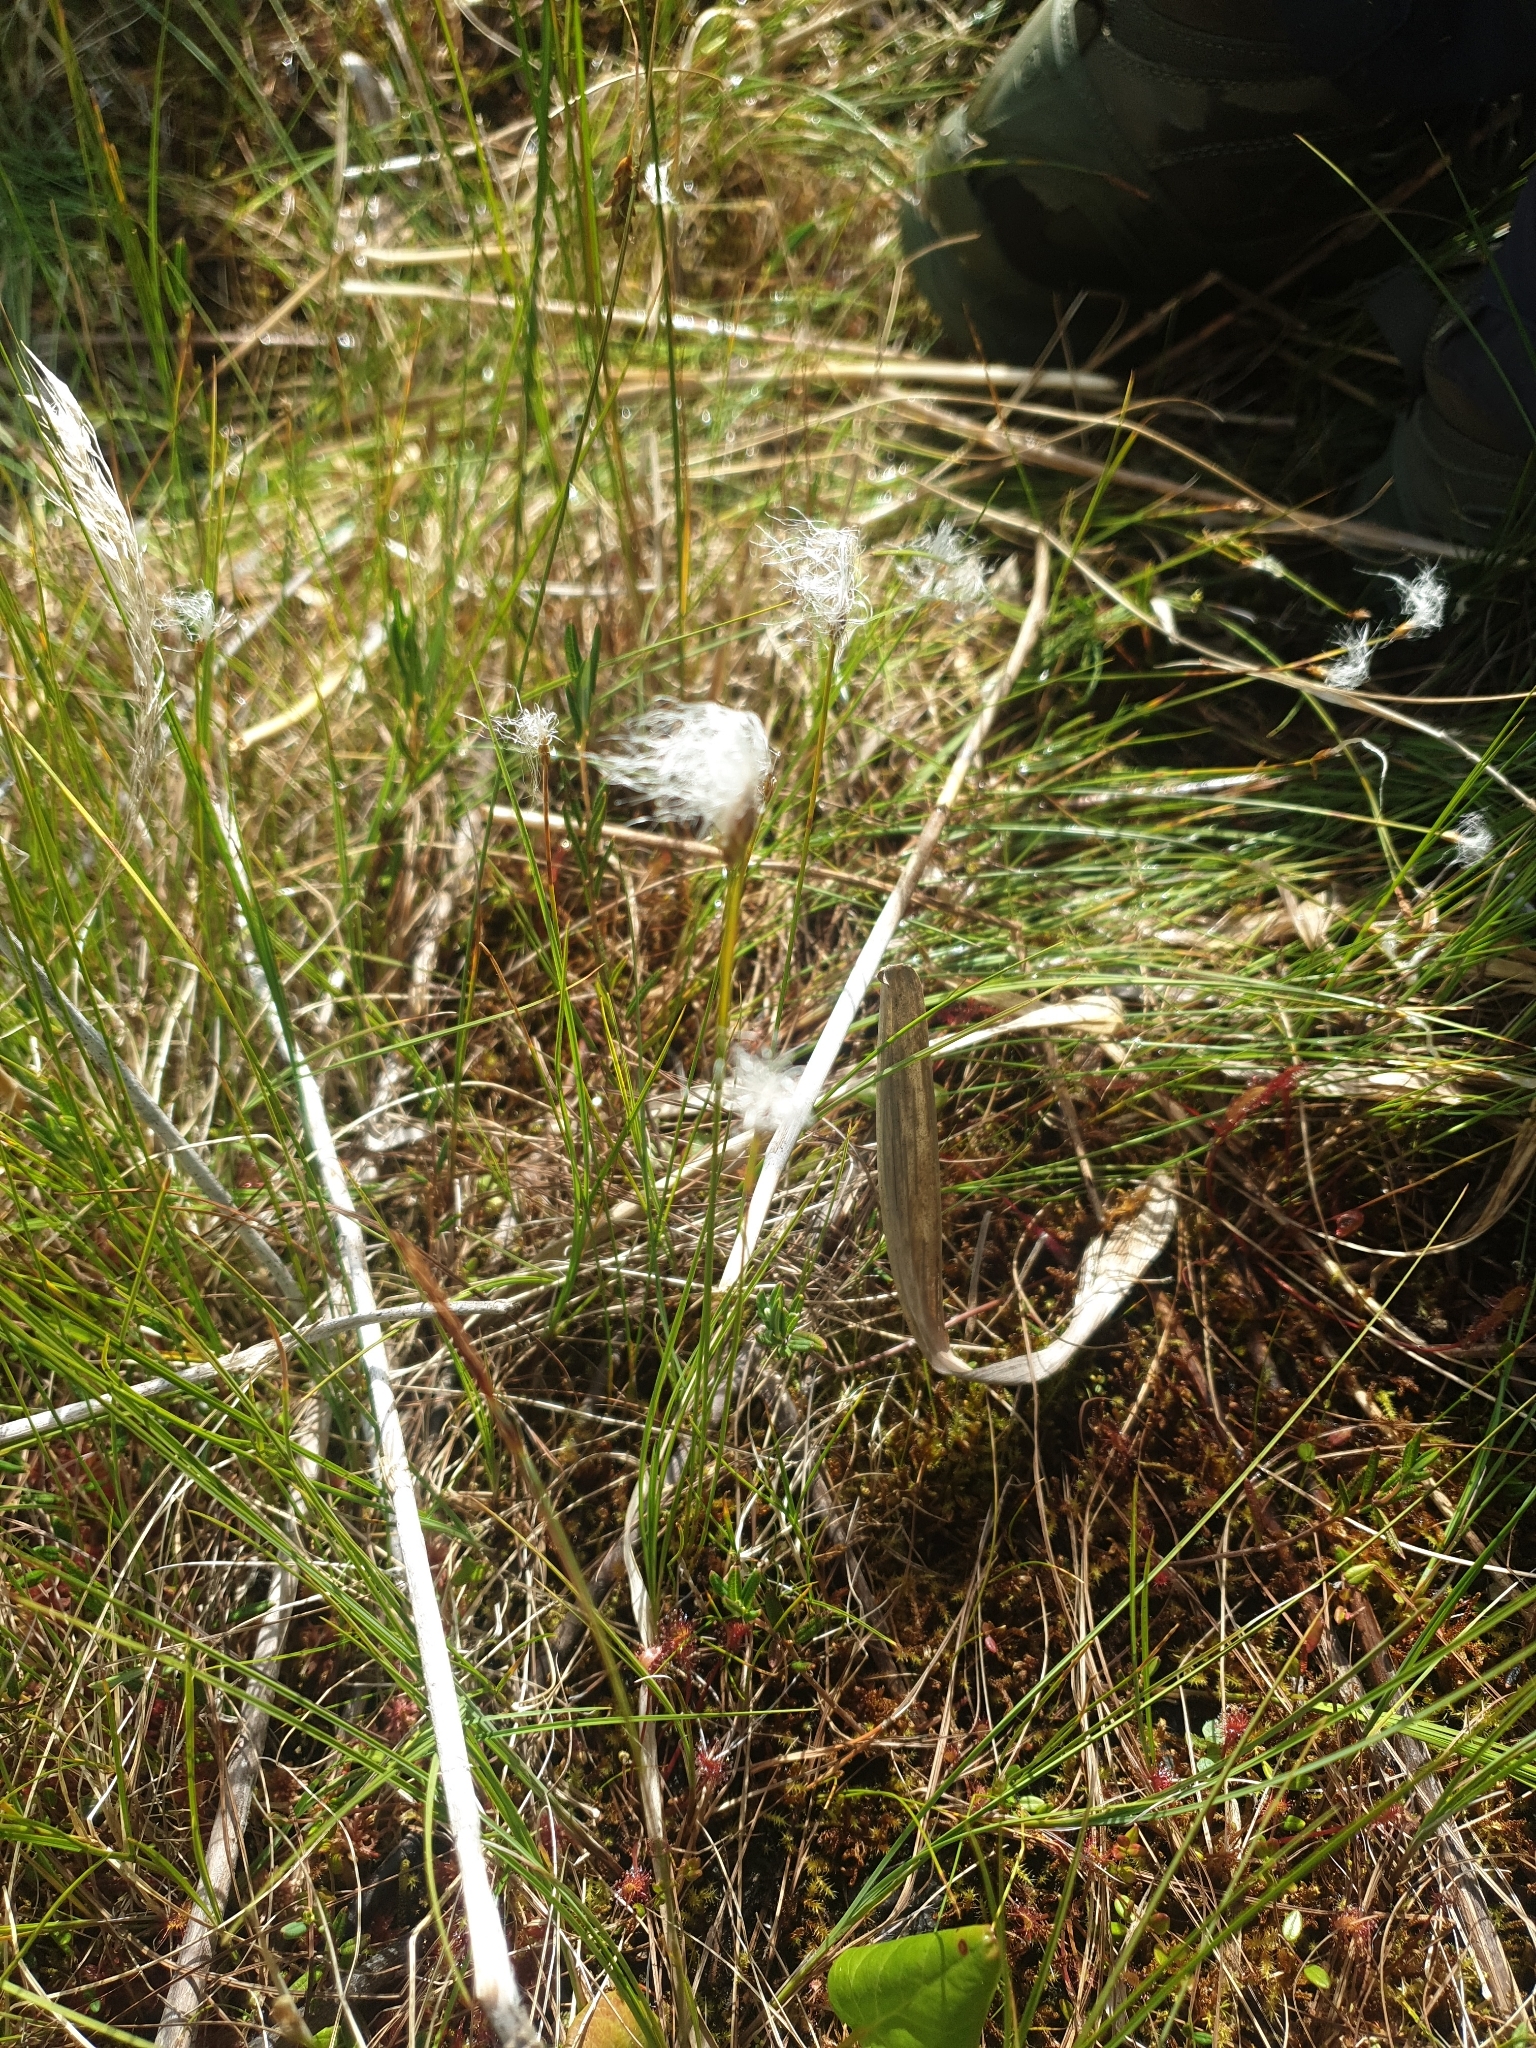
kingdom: Plantae
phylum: Tracheophyta
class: Liliopsida
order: Poales
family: Cyperaceae
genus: Trichophorum
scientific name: Trichophorum alpinum
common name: Alpine bulrush
